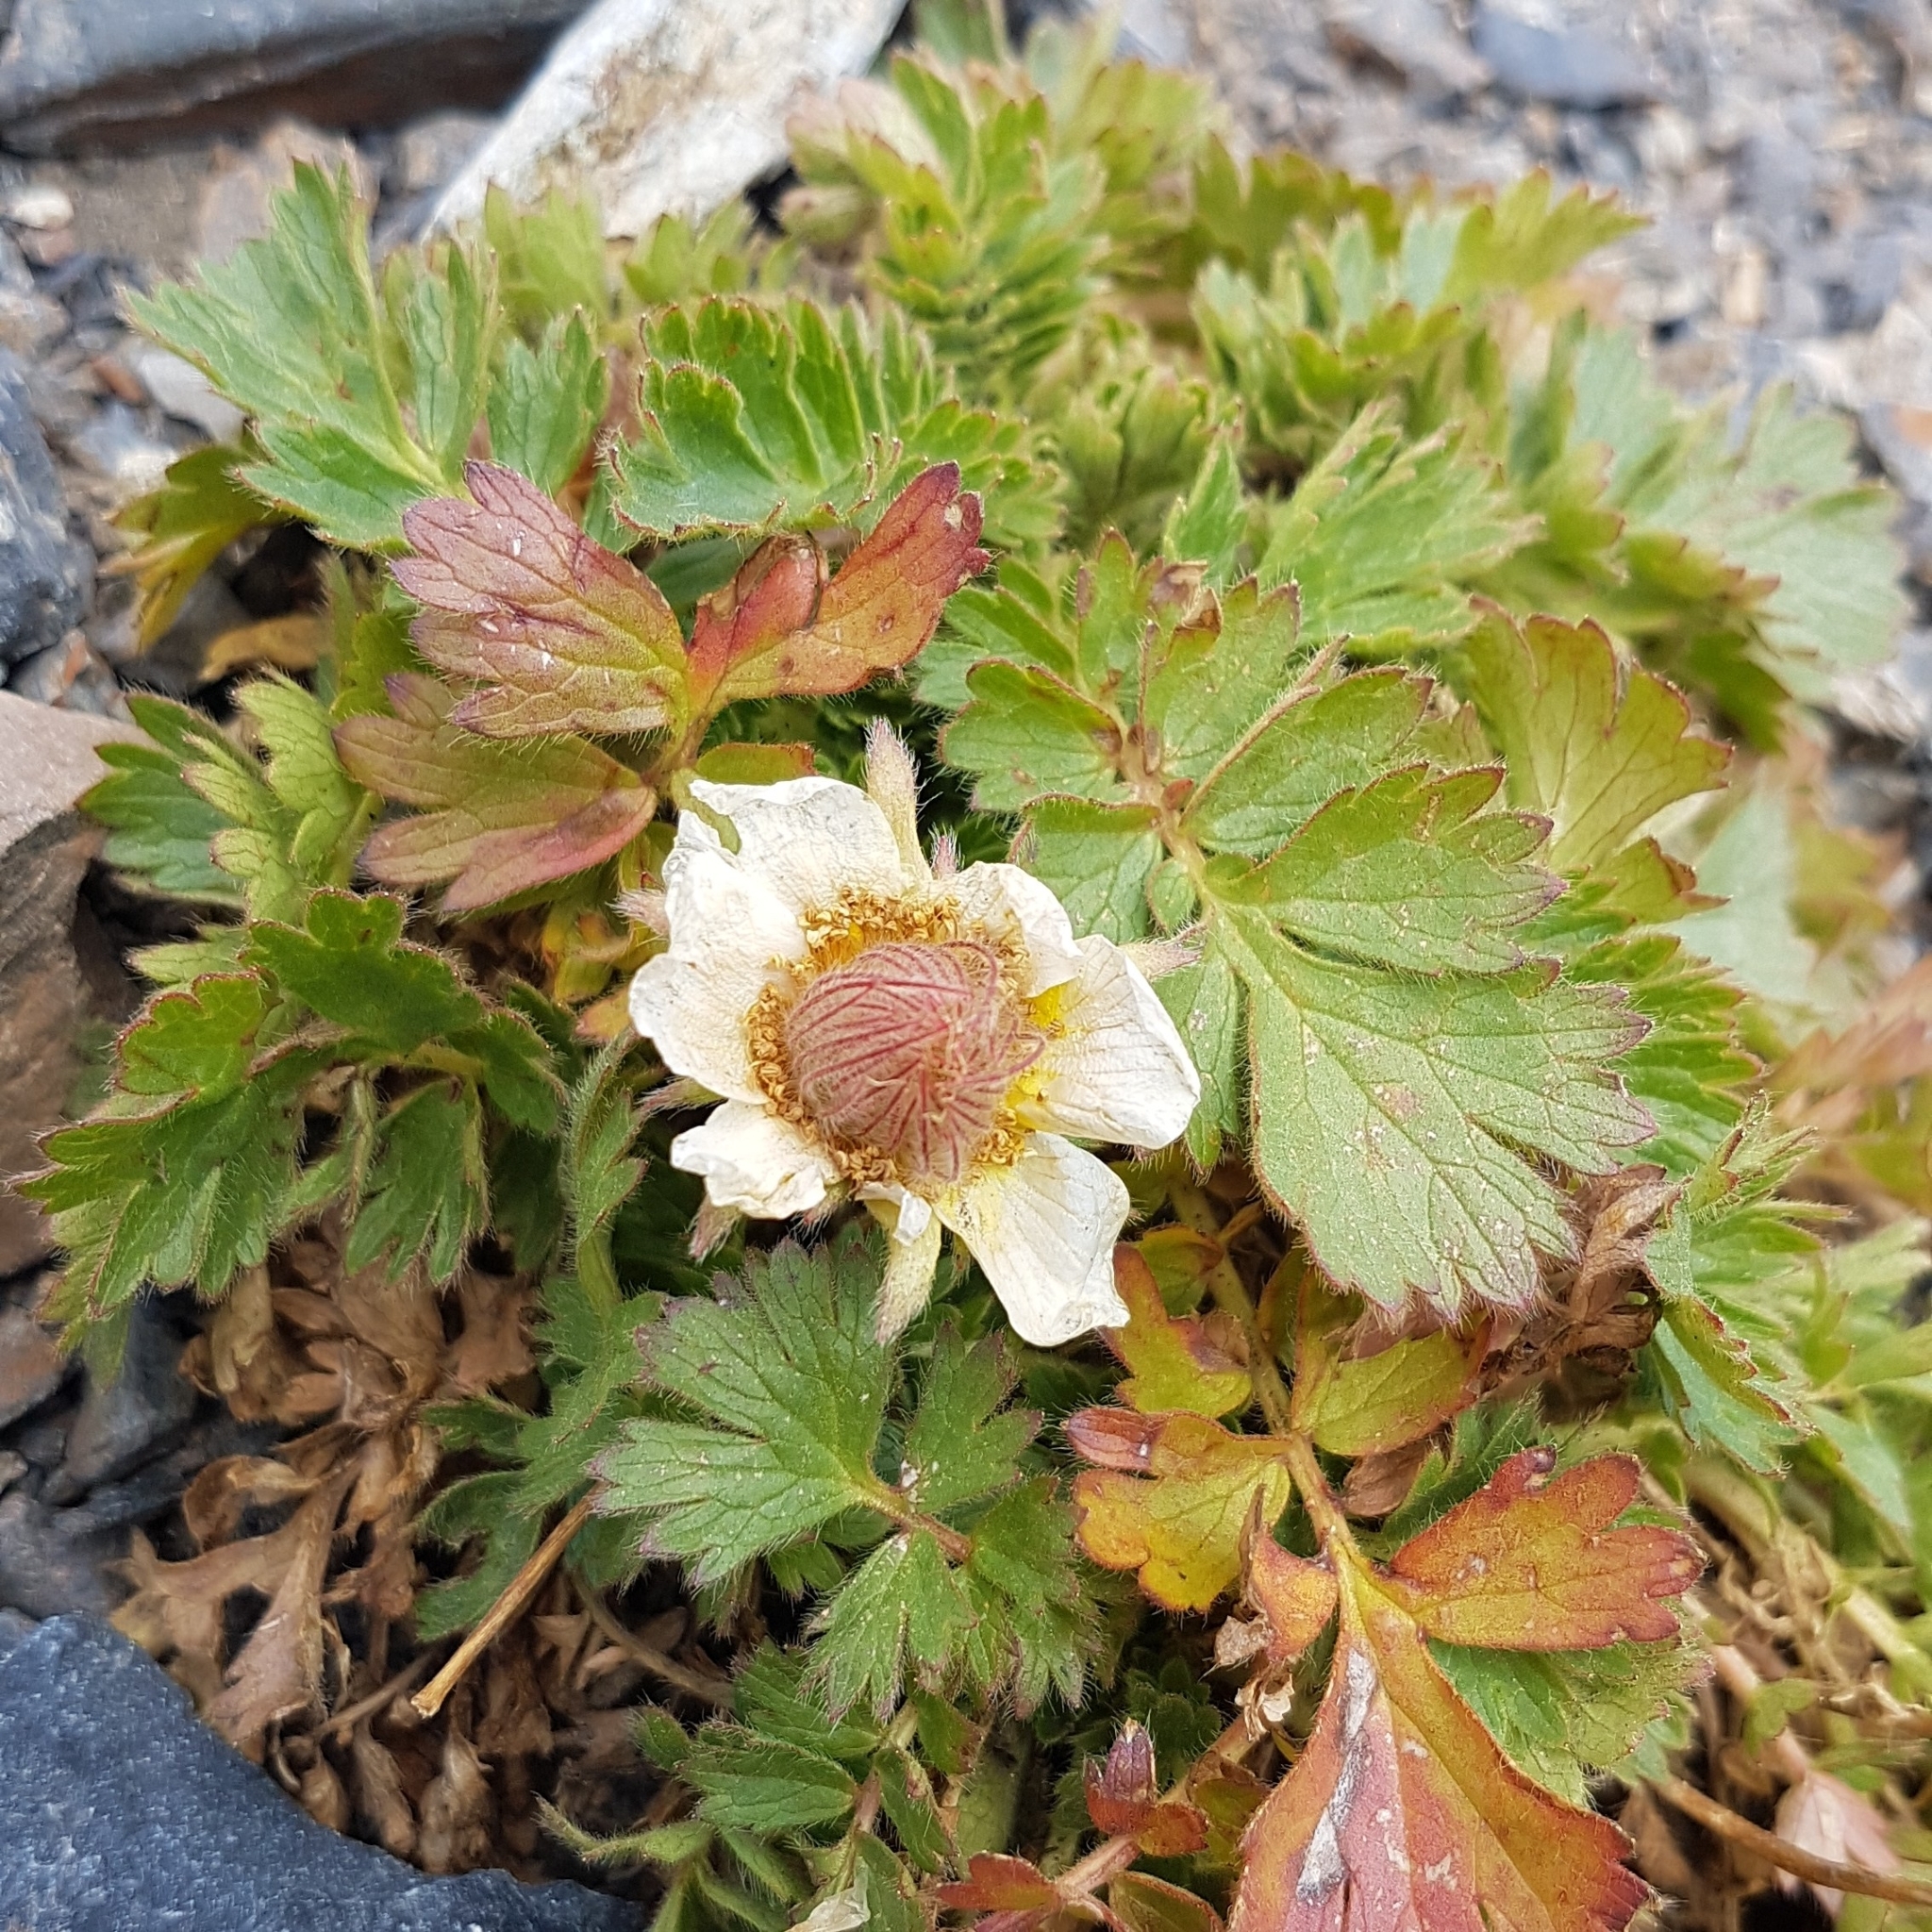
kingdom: Plantae
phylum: Tracheophyta
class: Magnoliopsida
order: Rosales
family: Rosaceae
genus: Geum
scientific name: Geum reptans
